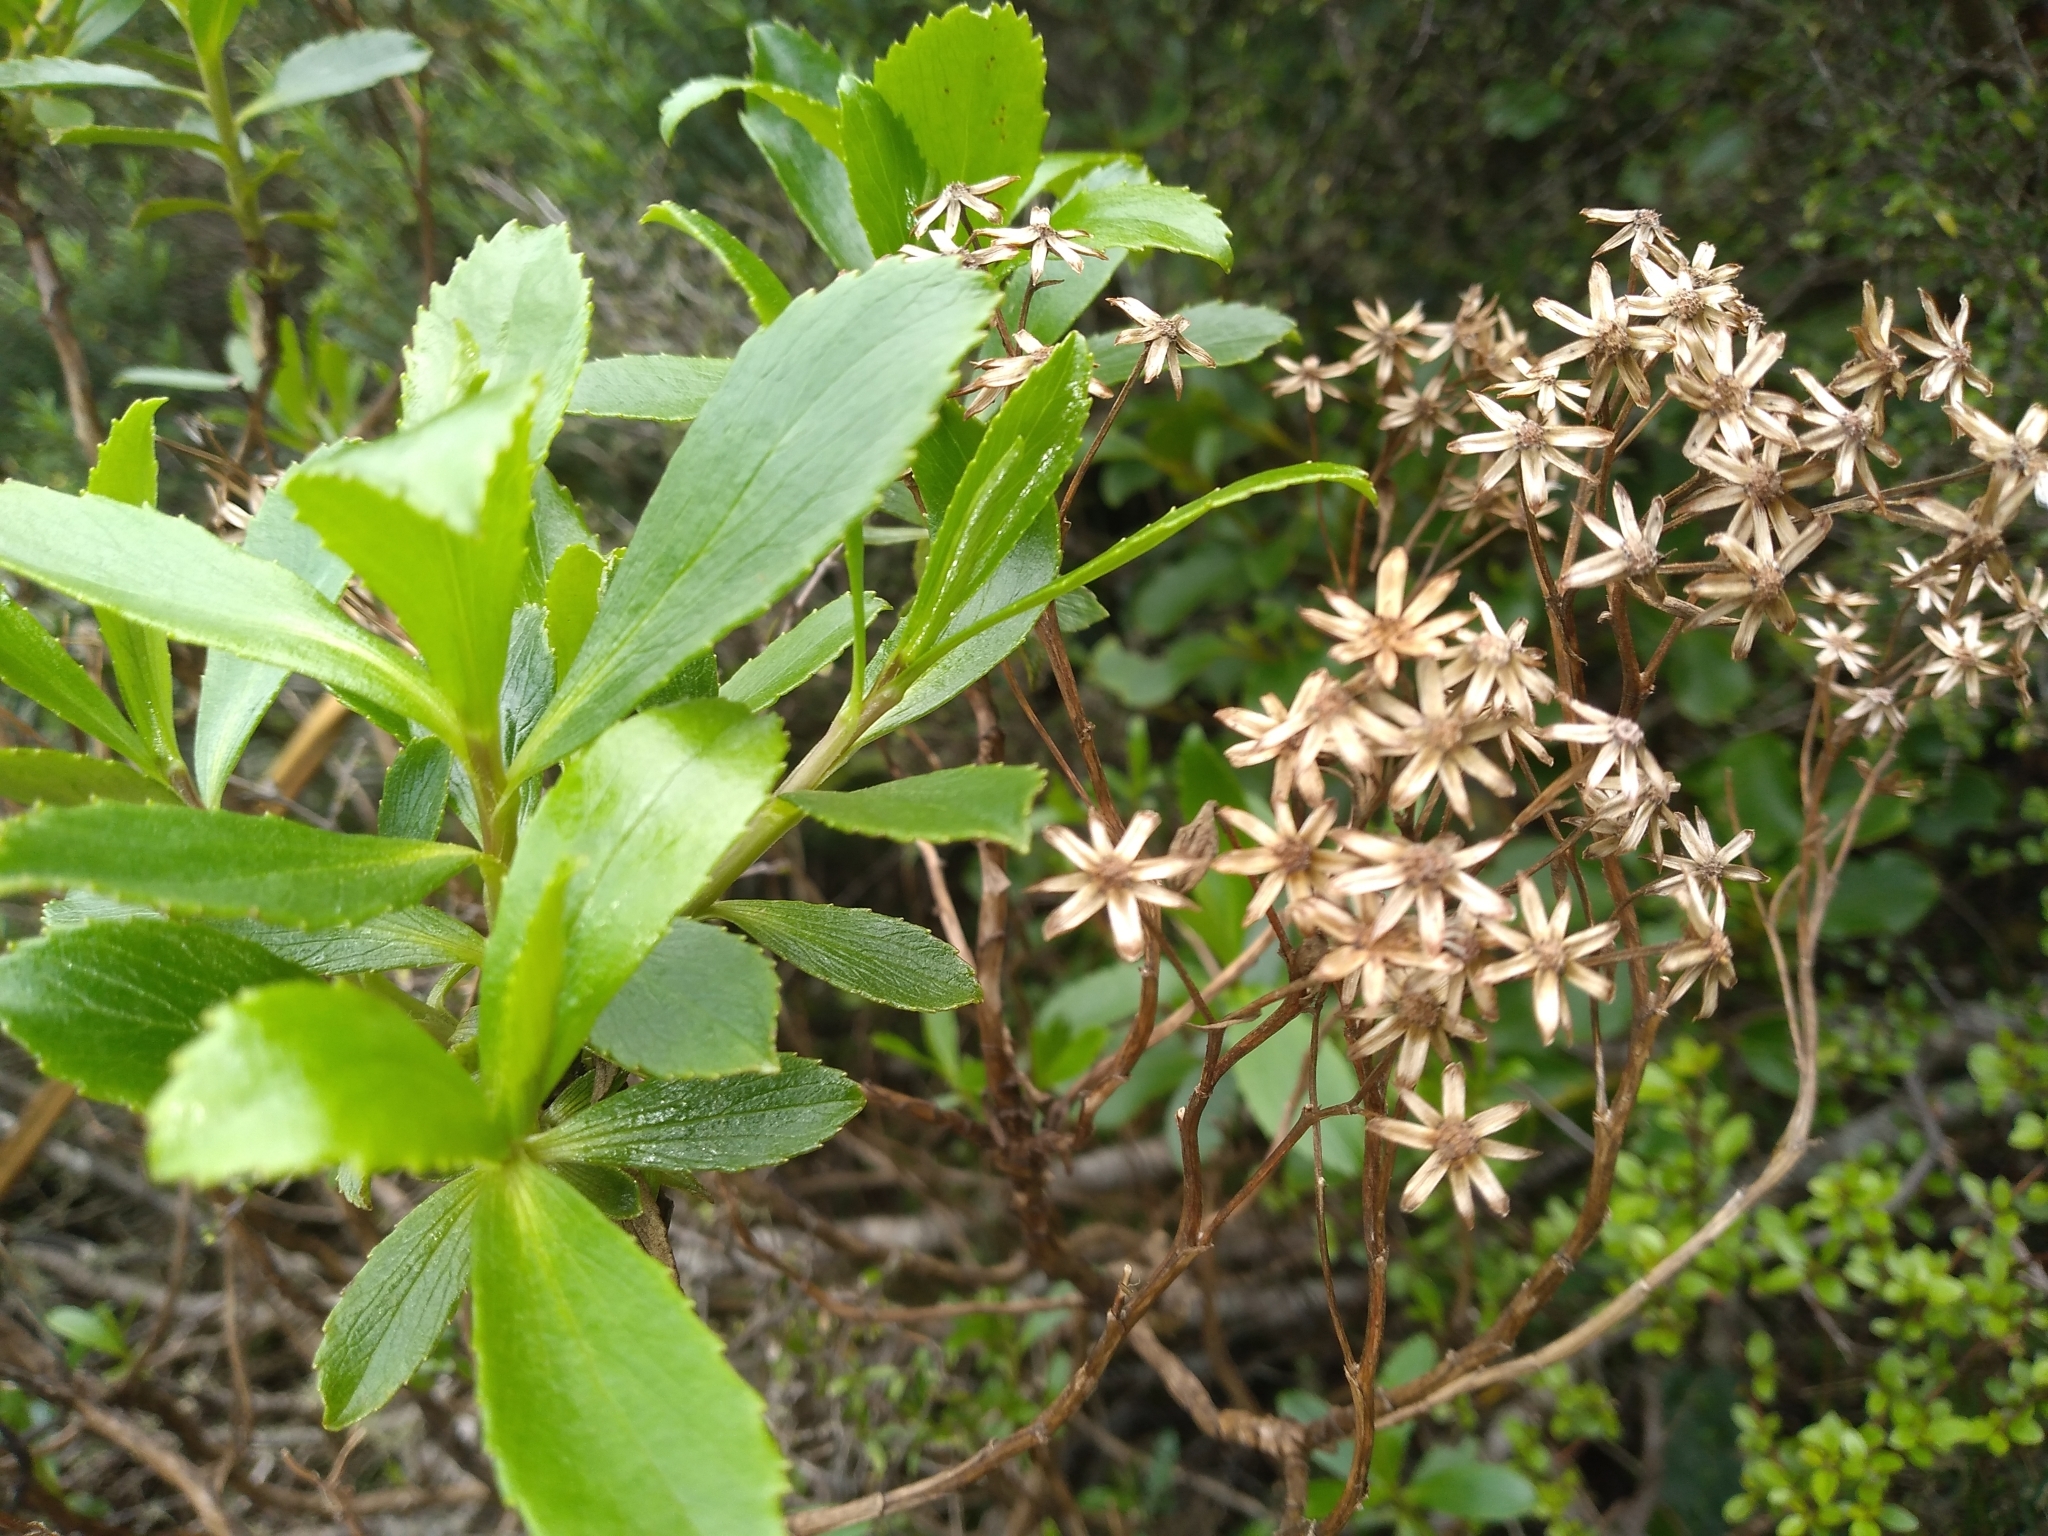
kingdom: Plantae
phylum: Tracheophyta
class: Magnoliopsida
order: Asterales
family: Asteraceae
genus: Traversia
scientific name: Traversia baccharoides
